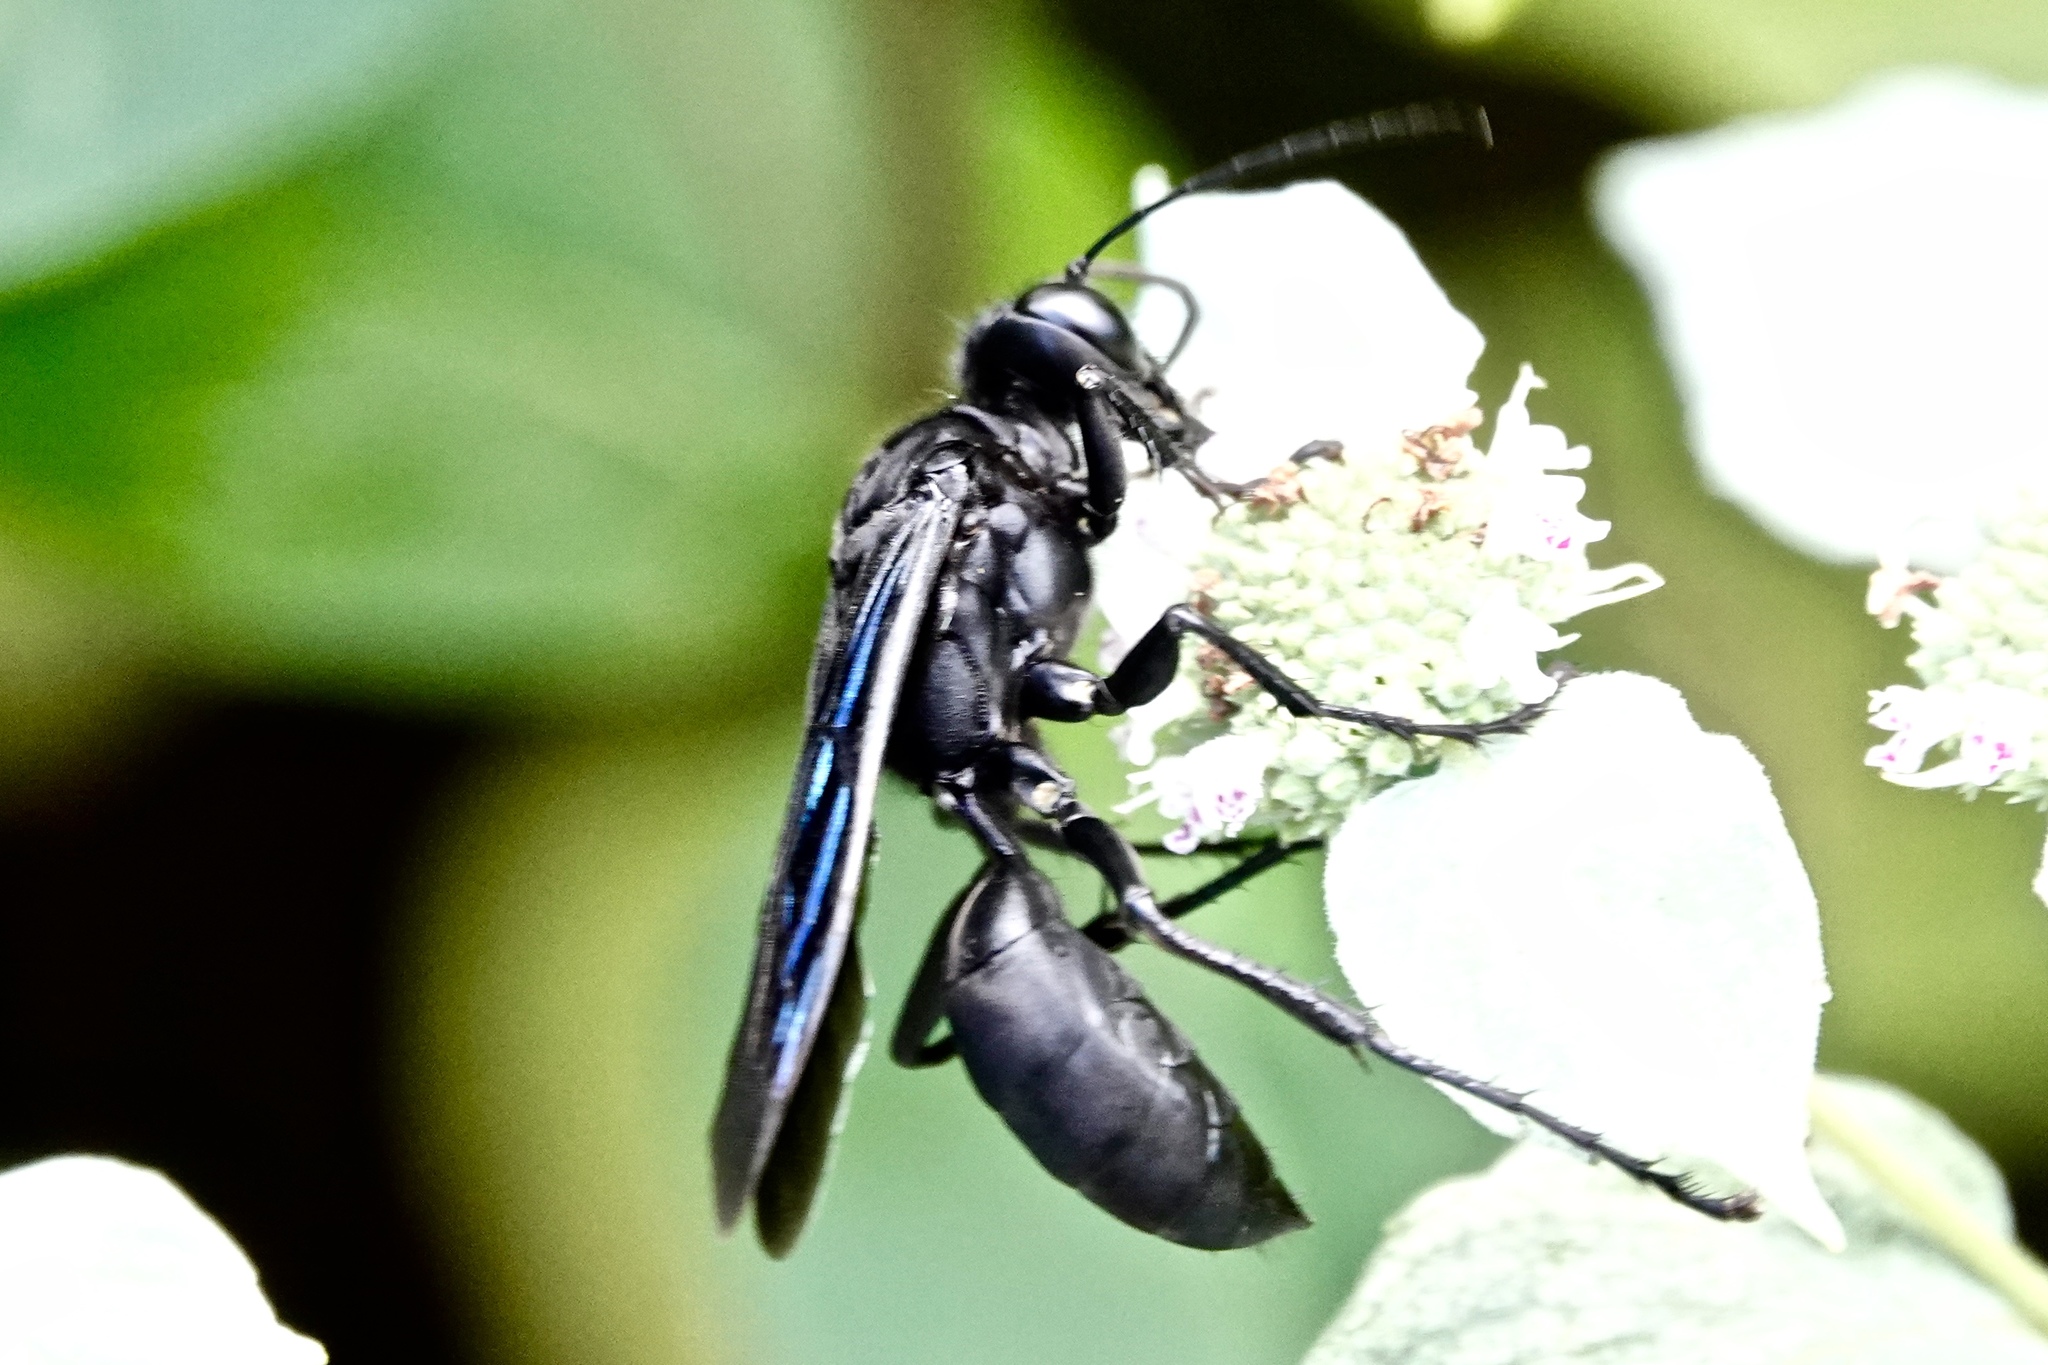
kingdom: Animalia
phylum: Arthropoda
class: Insecta
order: Hymenoptera
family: Sphecidae
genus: Sphex
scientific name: Sphex pensylvanicus
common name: Great black digger wasp
